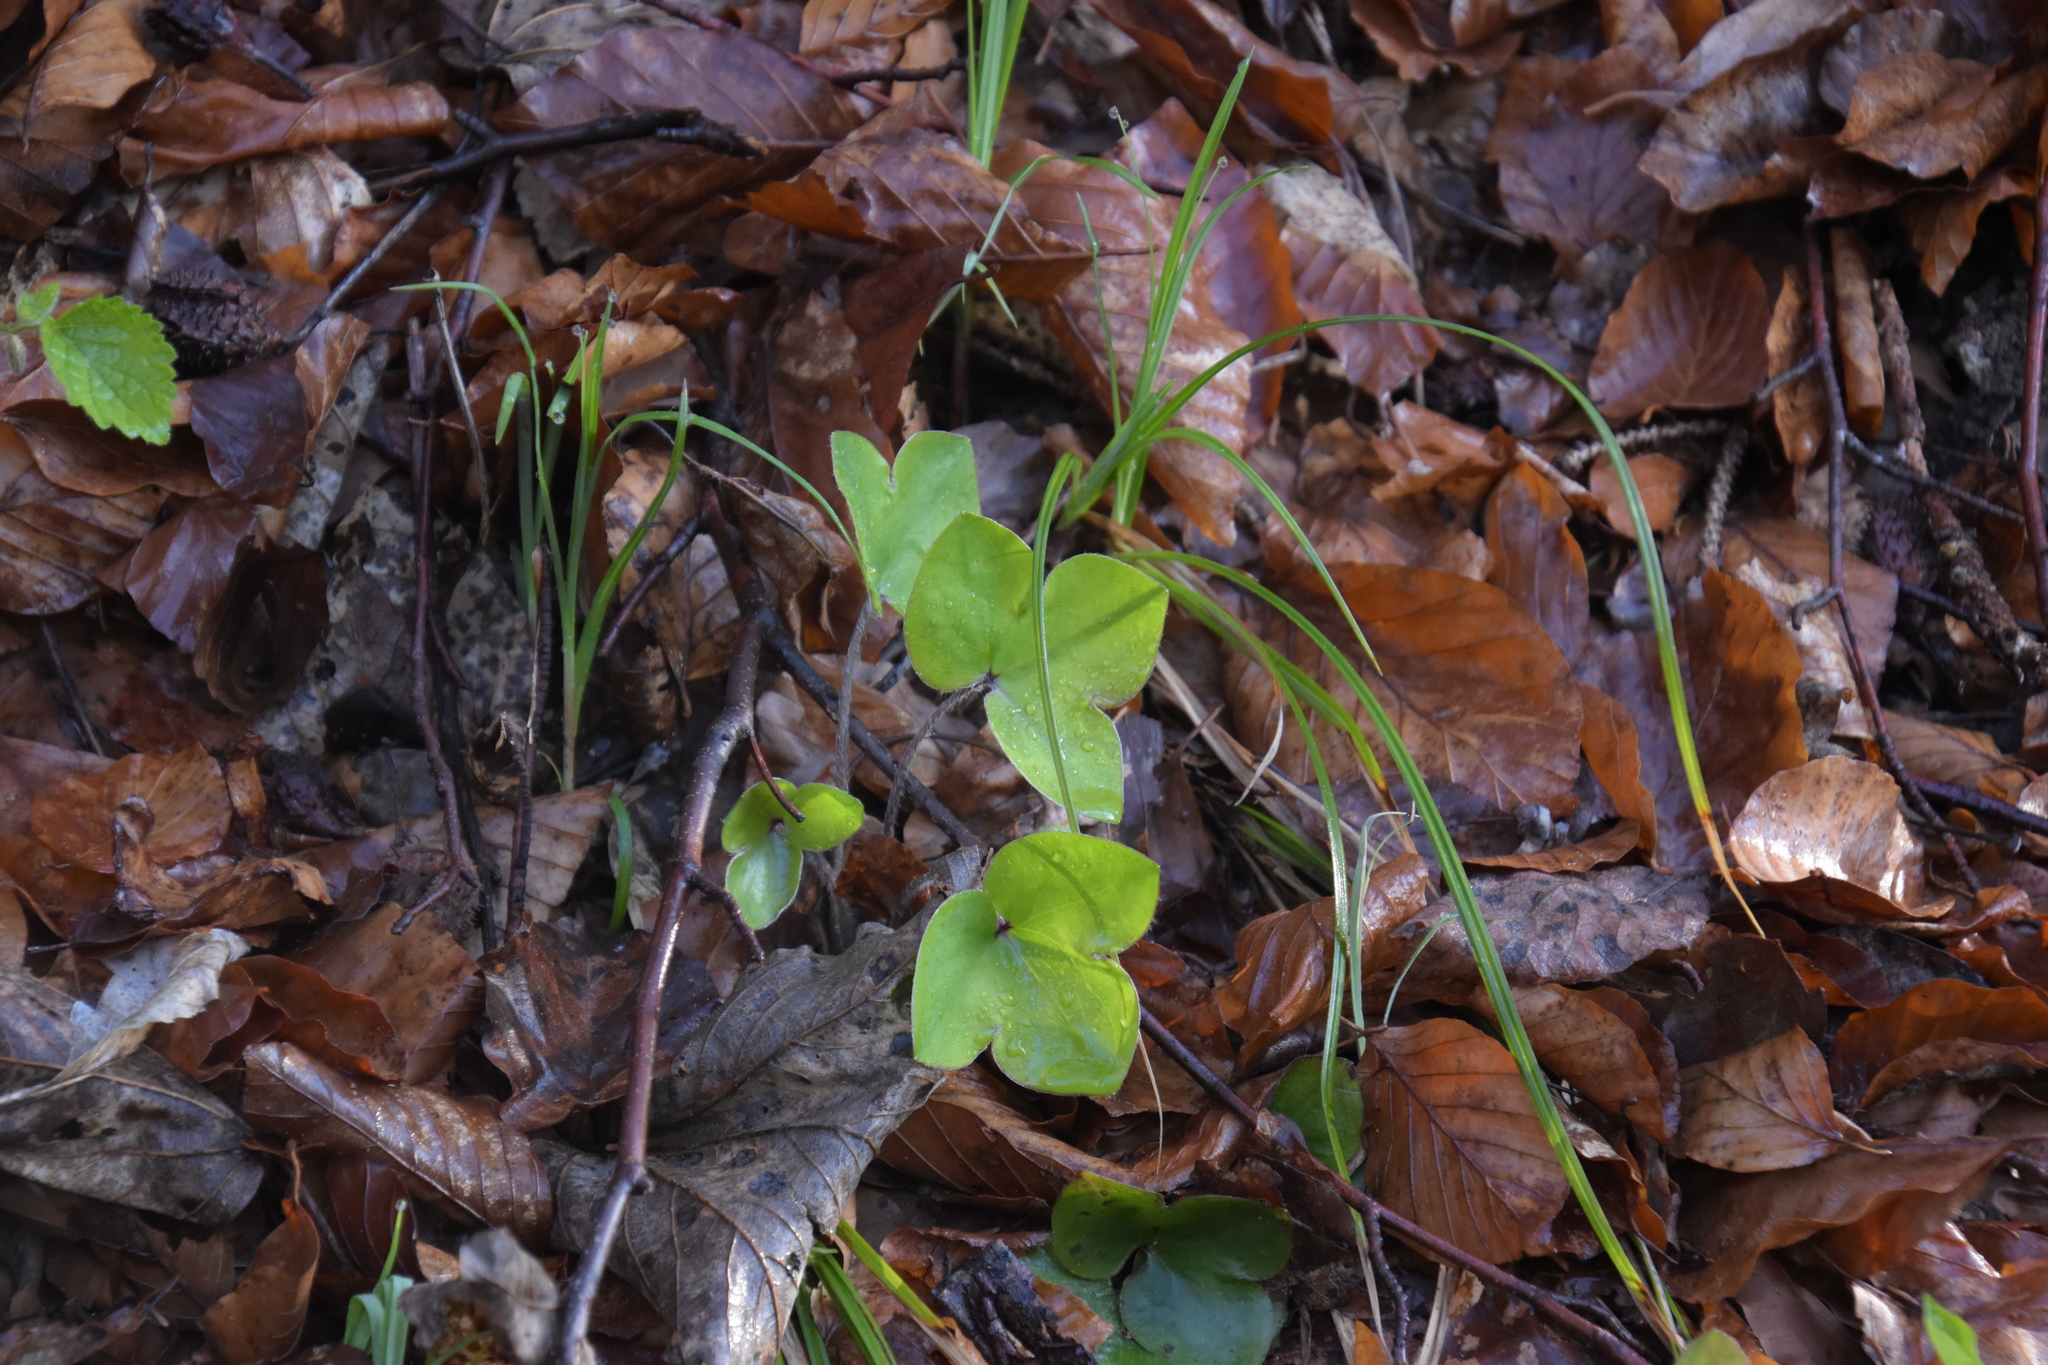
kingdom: Plantae
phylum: Tracheophyta
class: Magnoliopsida
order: Ranunculales
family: Ranunculaceae
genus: Hepatica
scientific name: Hepatica nobilis
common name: Liverleaf
